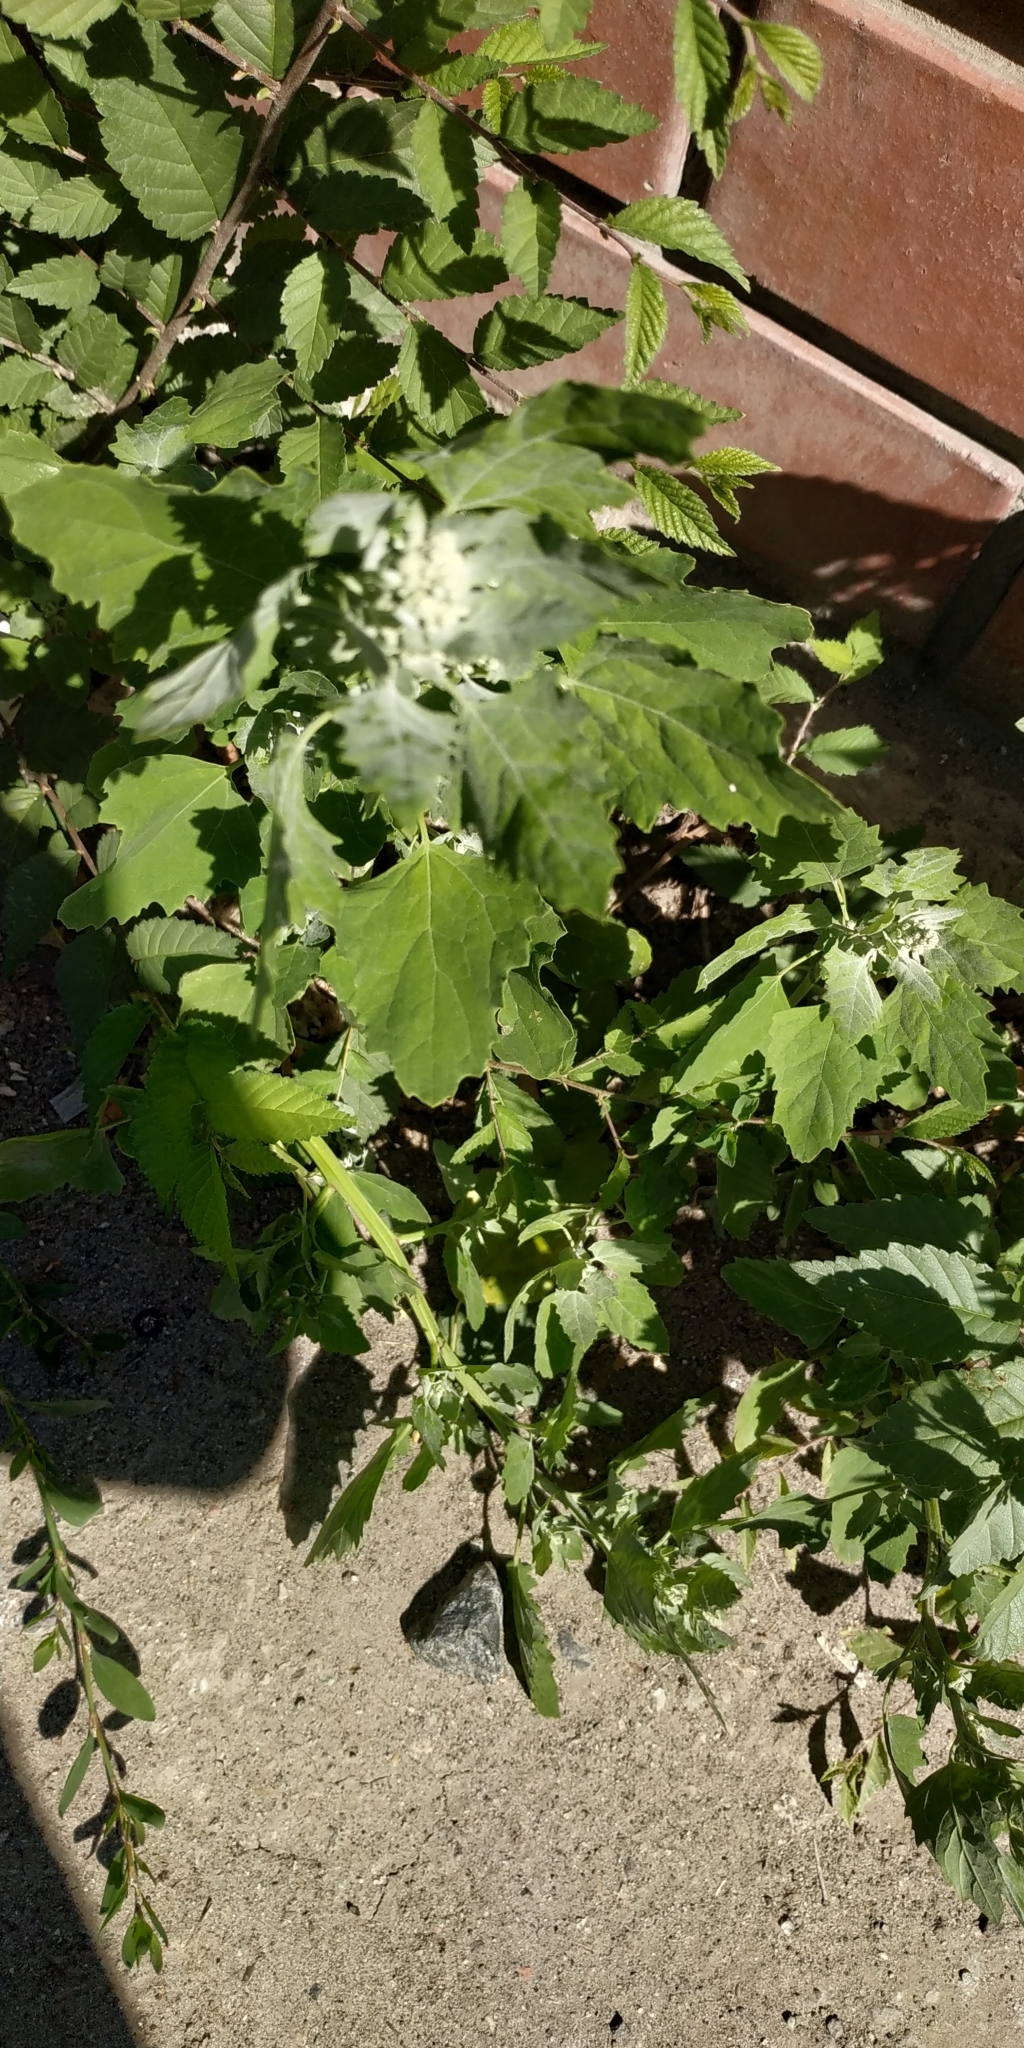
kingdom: Plantae
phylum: Tracheophyta
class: Magnoliopsida
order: Caryophyllales
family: Amaranthaceae
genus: Chenopodium
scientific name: Chenopodium album
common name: Fat-hen
